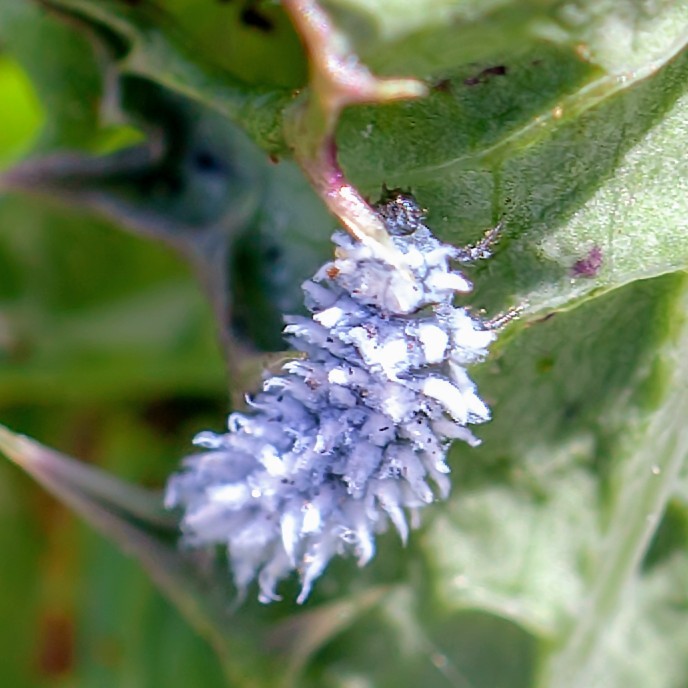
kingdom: Animalia
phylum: Arthropoda
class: Insecta
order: Coleoptera
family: Coccinellidae
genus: Cryptolaemus
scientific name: Cryptolaemus montrouzieri
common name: Mealybug destroyer
